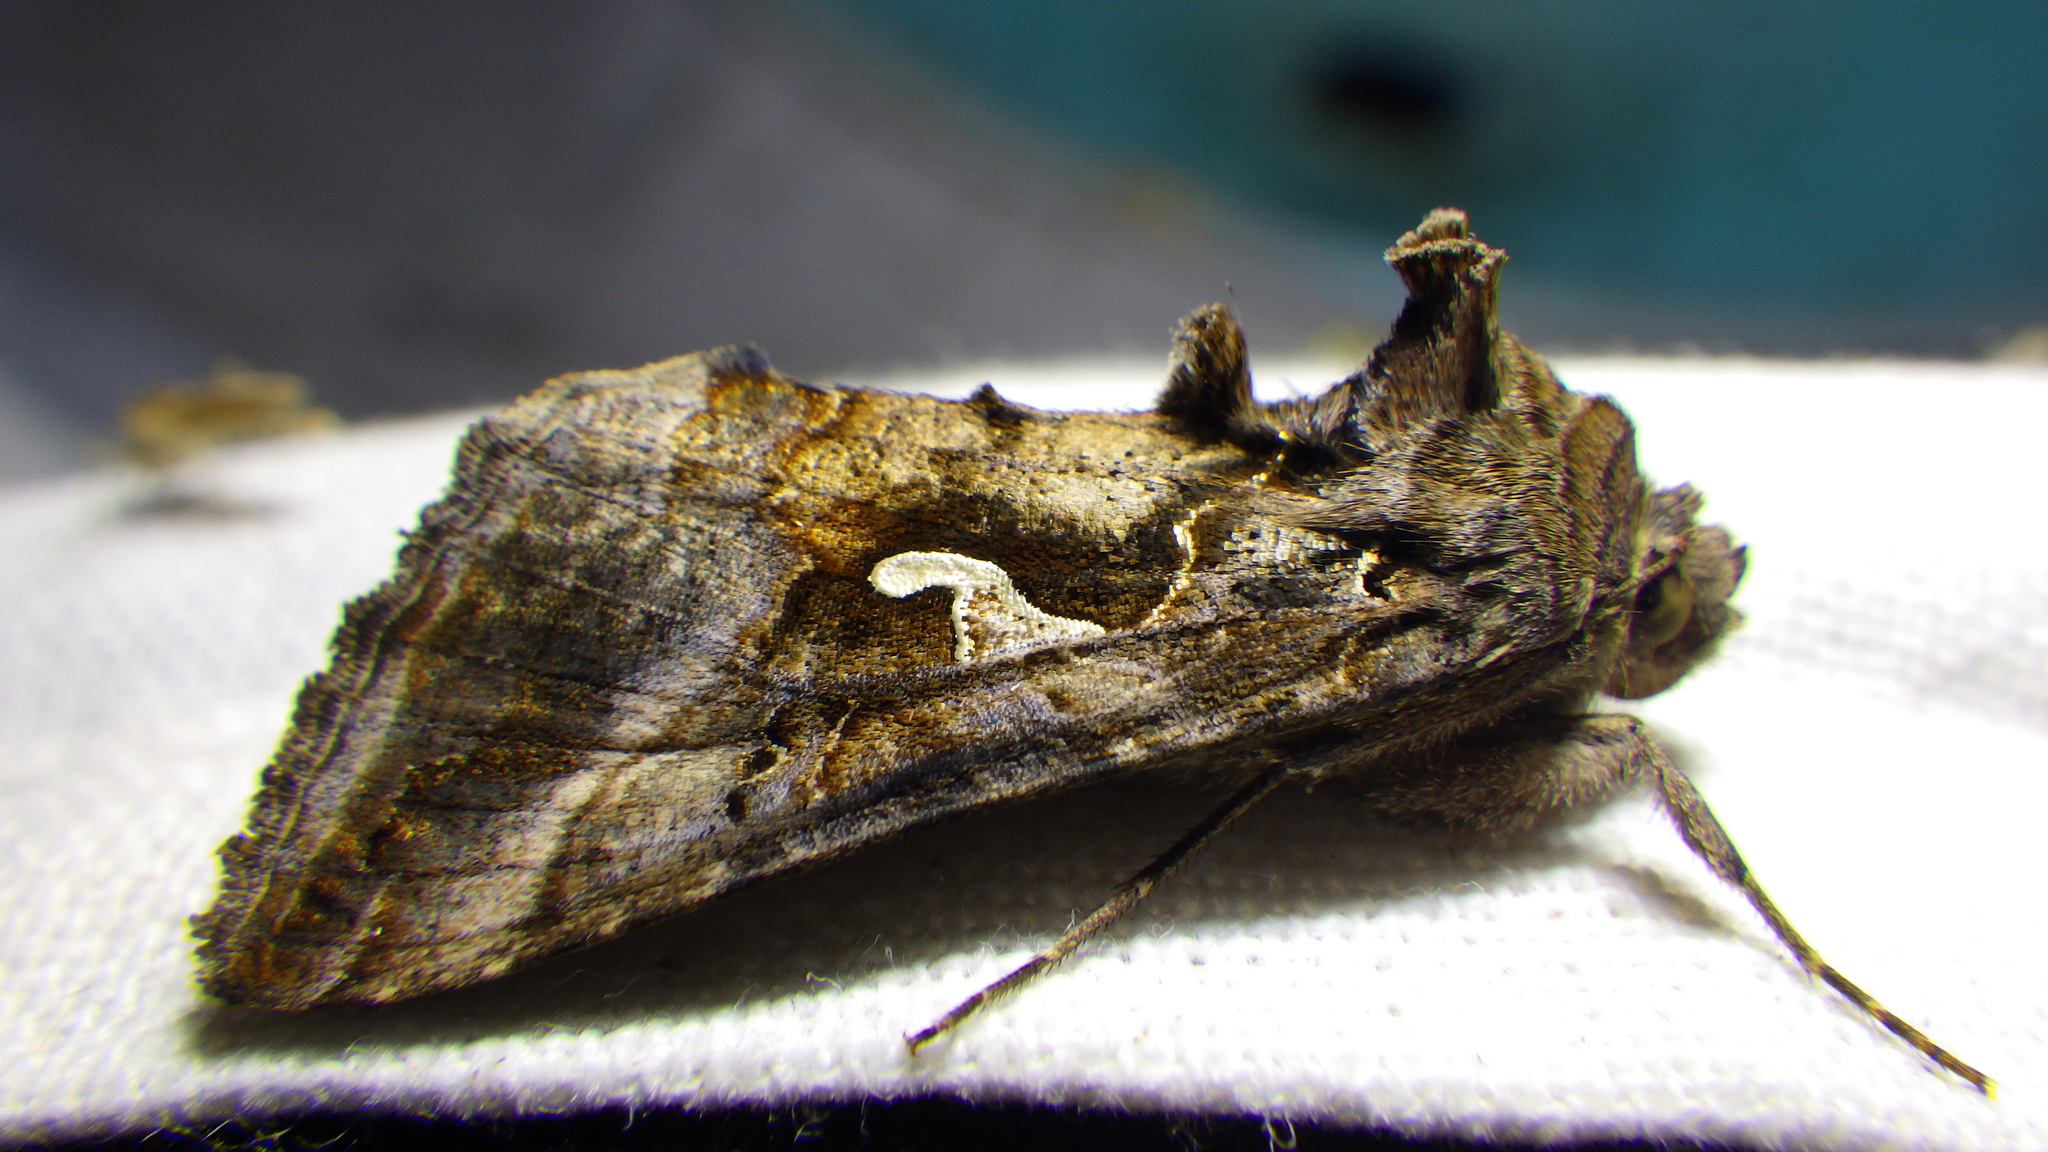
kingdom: Animalia
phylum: Arthropoda
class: Insecta
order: Lepidoptera
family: Noctuidae
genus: Autographa
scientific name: Autographa gamma
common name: Silver y
